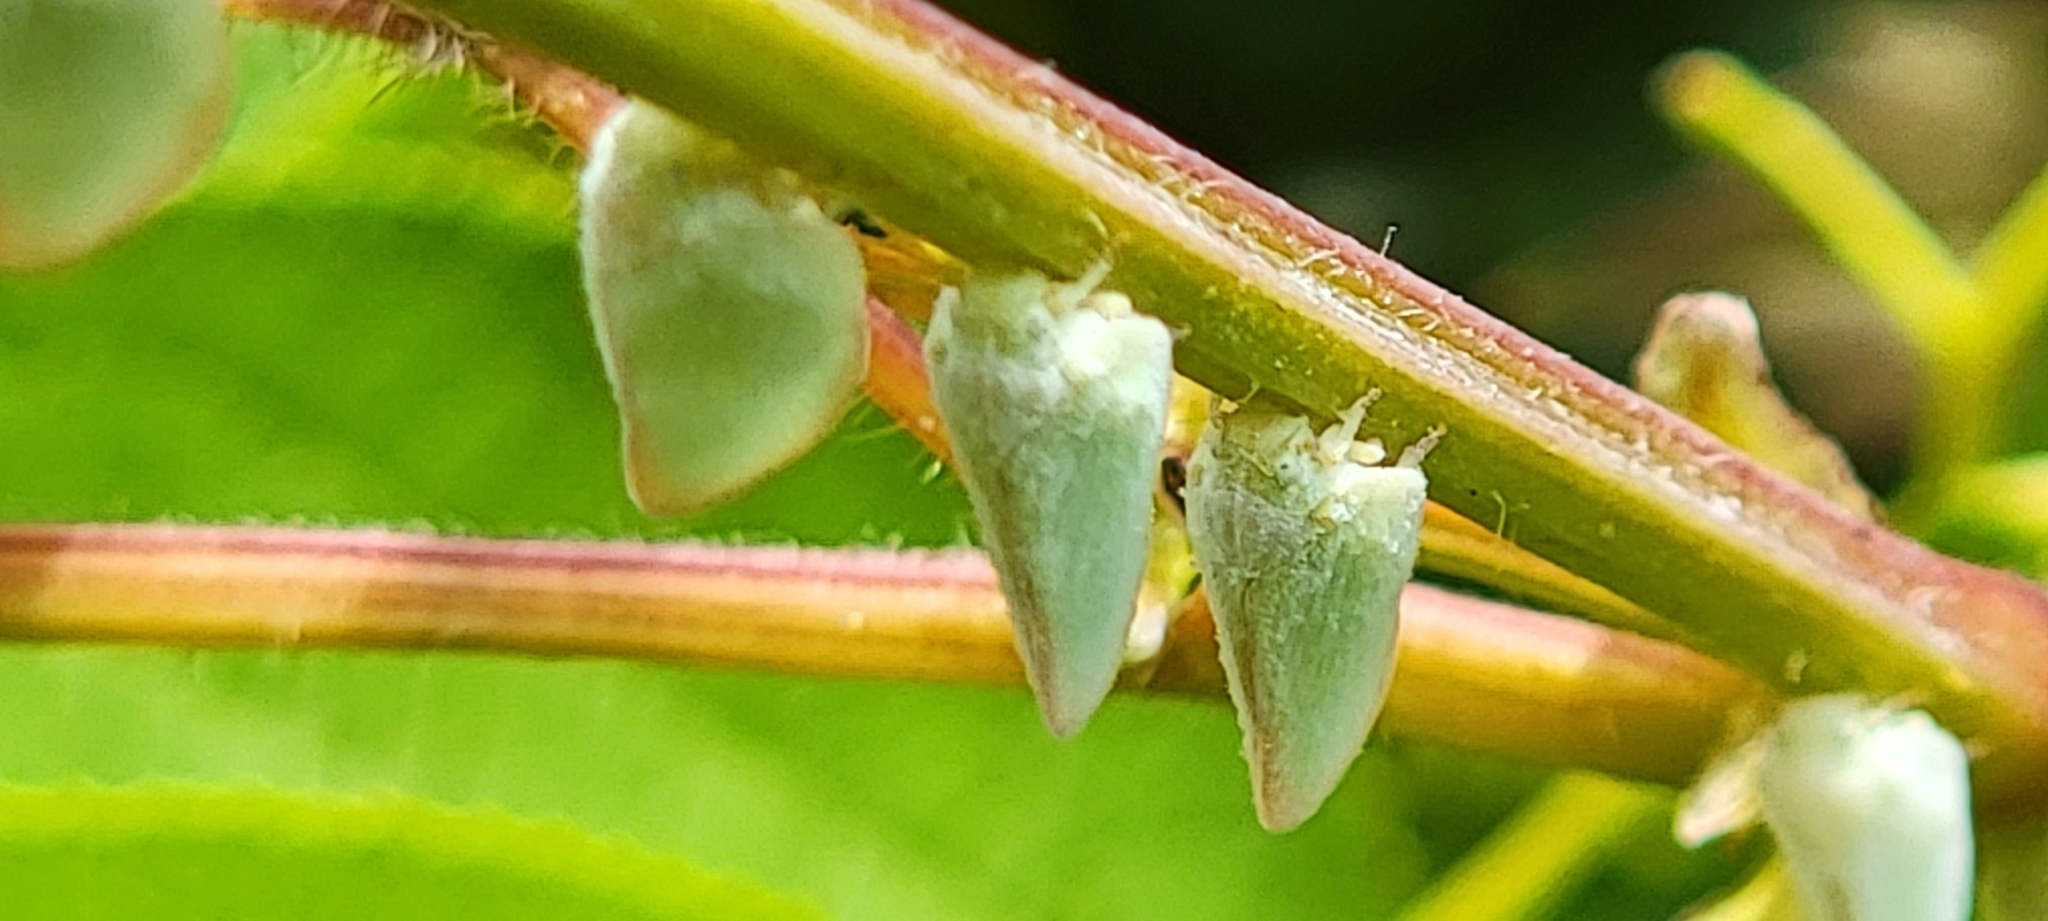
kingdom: Animalia
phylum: Arthropoda
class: Insecta
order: Hemiptera
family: Flatidae
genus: Ormenoides
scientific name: Ormenoides venusta
